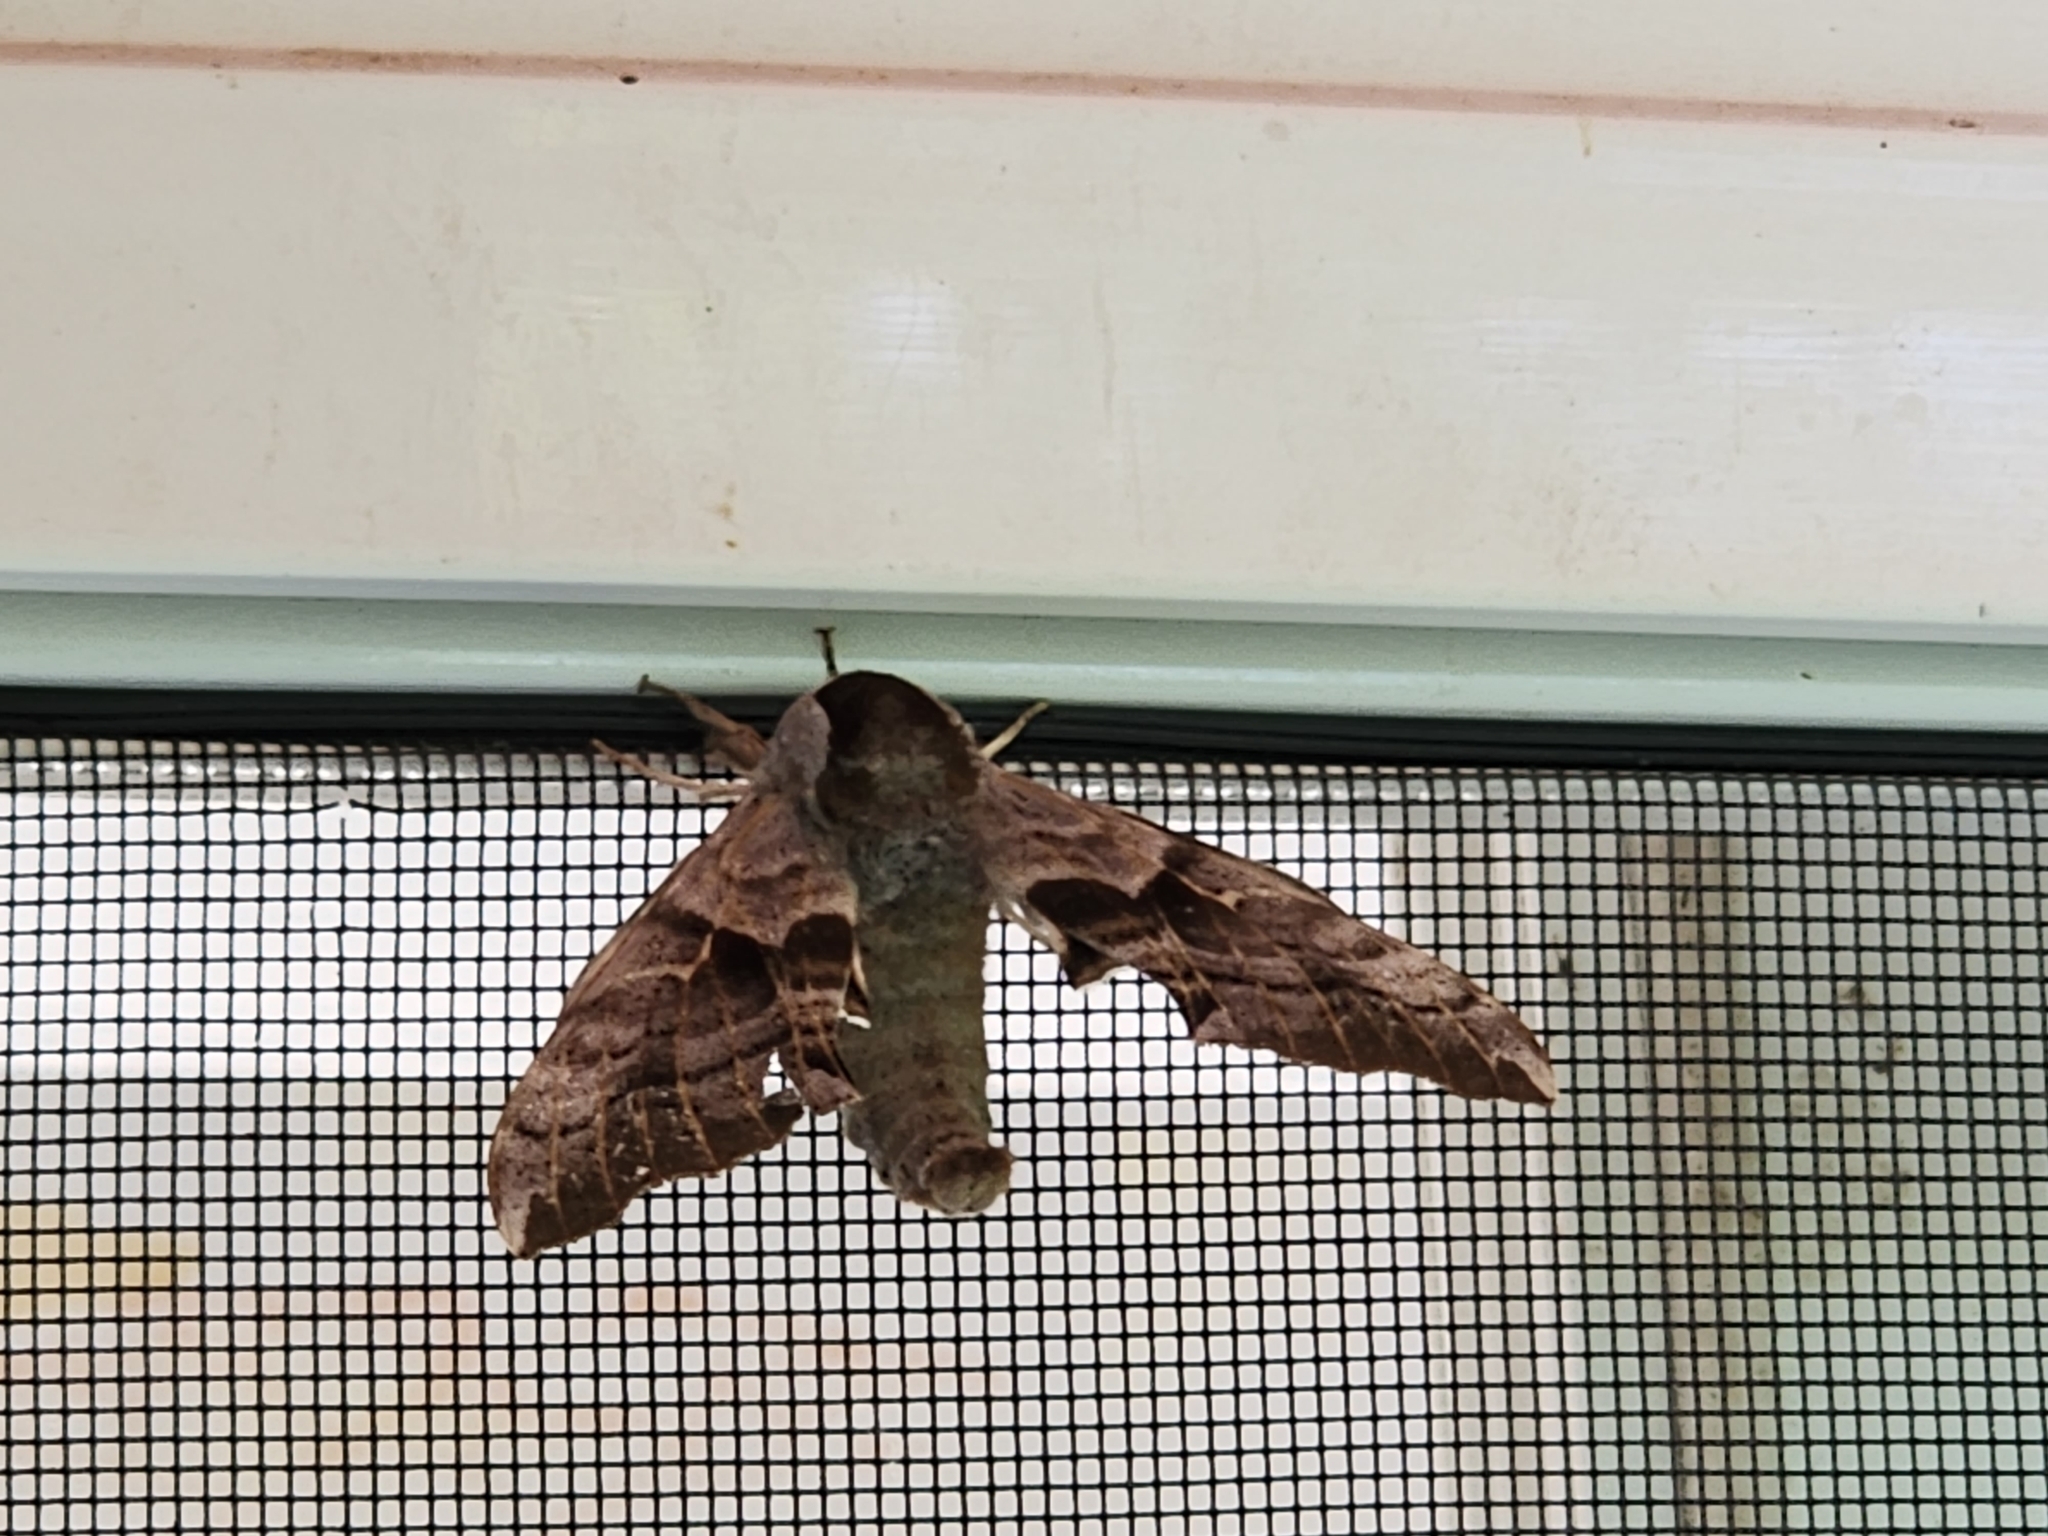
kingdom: Animalia
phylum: Arthropoda
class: Insecta
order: Lepidoptera
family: Sphingidae
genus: Smerinthus
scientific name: Smerinthus cerisyi
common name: Cerisy's sphinx moth
